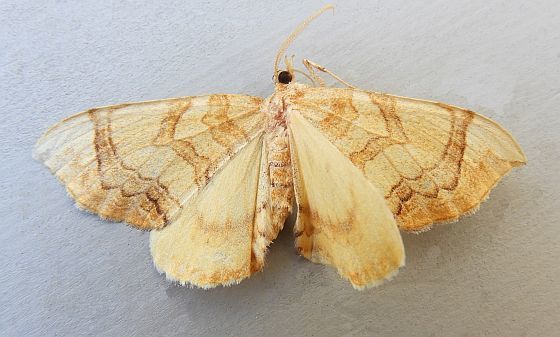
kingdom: Animalia
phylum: Arthropoda
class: Insecta
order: Lepidoptera
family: Geometridae
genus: Eulithis
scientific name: Eulithis luteolata
